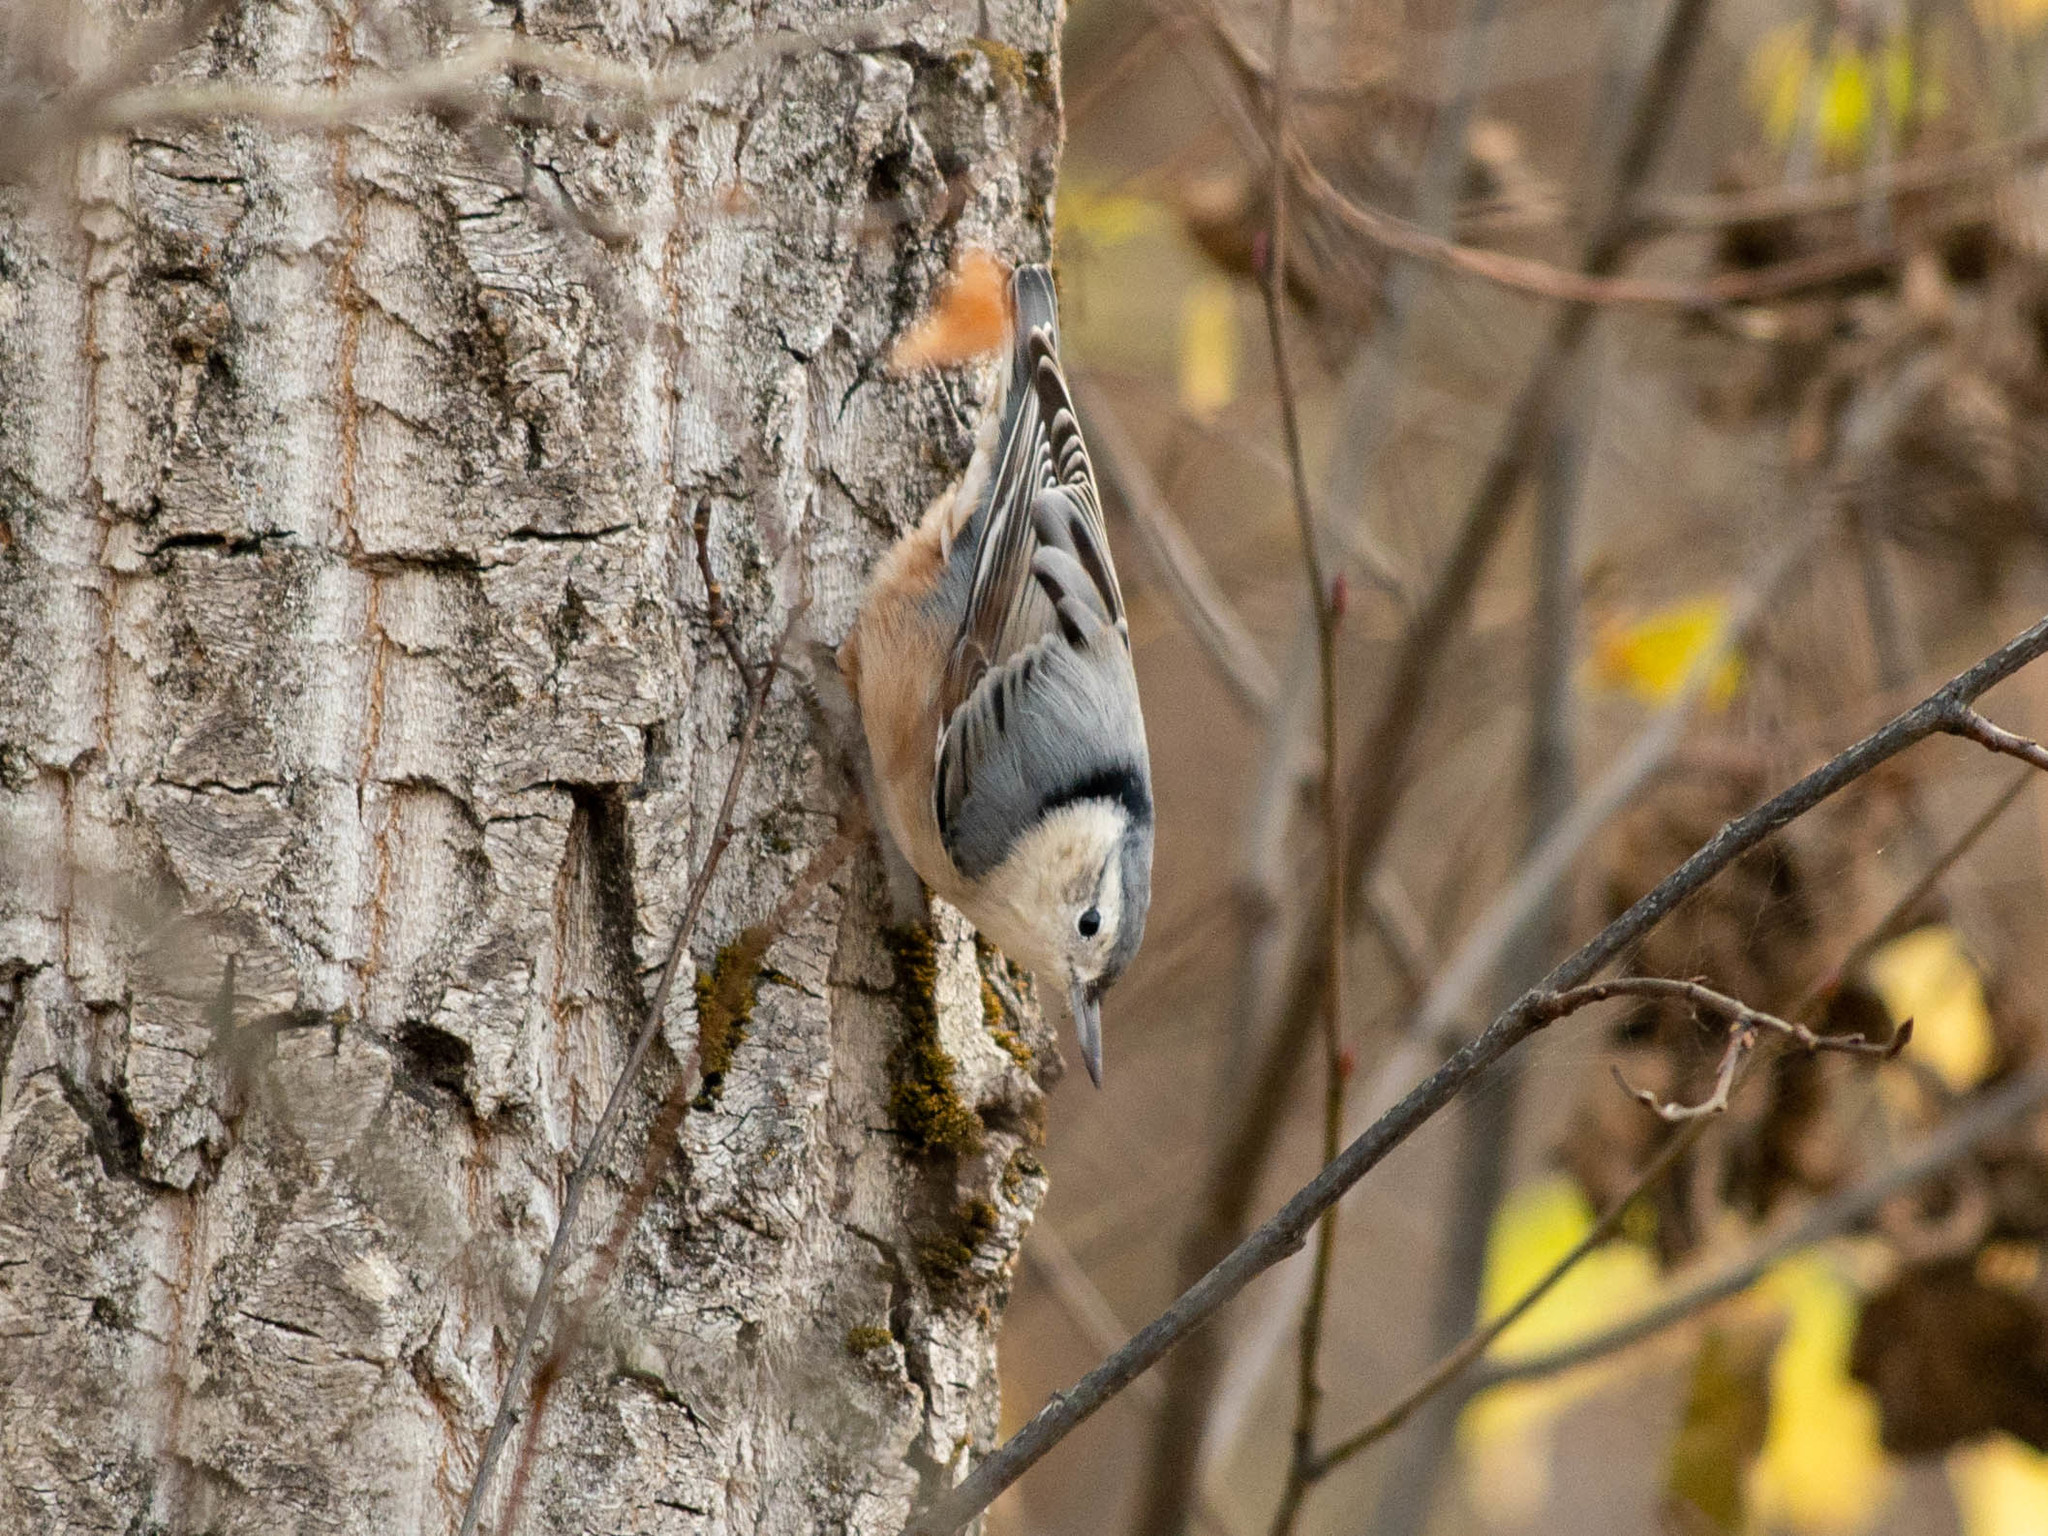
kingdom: Animalia
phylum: Chordata
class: Aves
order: Passeriformes
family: Sittidae
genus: Sitta
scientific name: Sitta carolinensis
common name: White-breasted nuthatch
